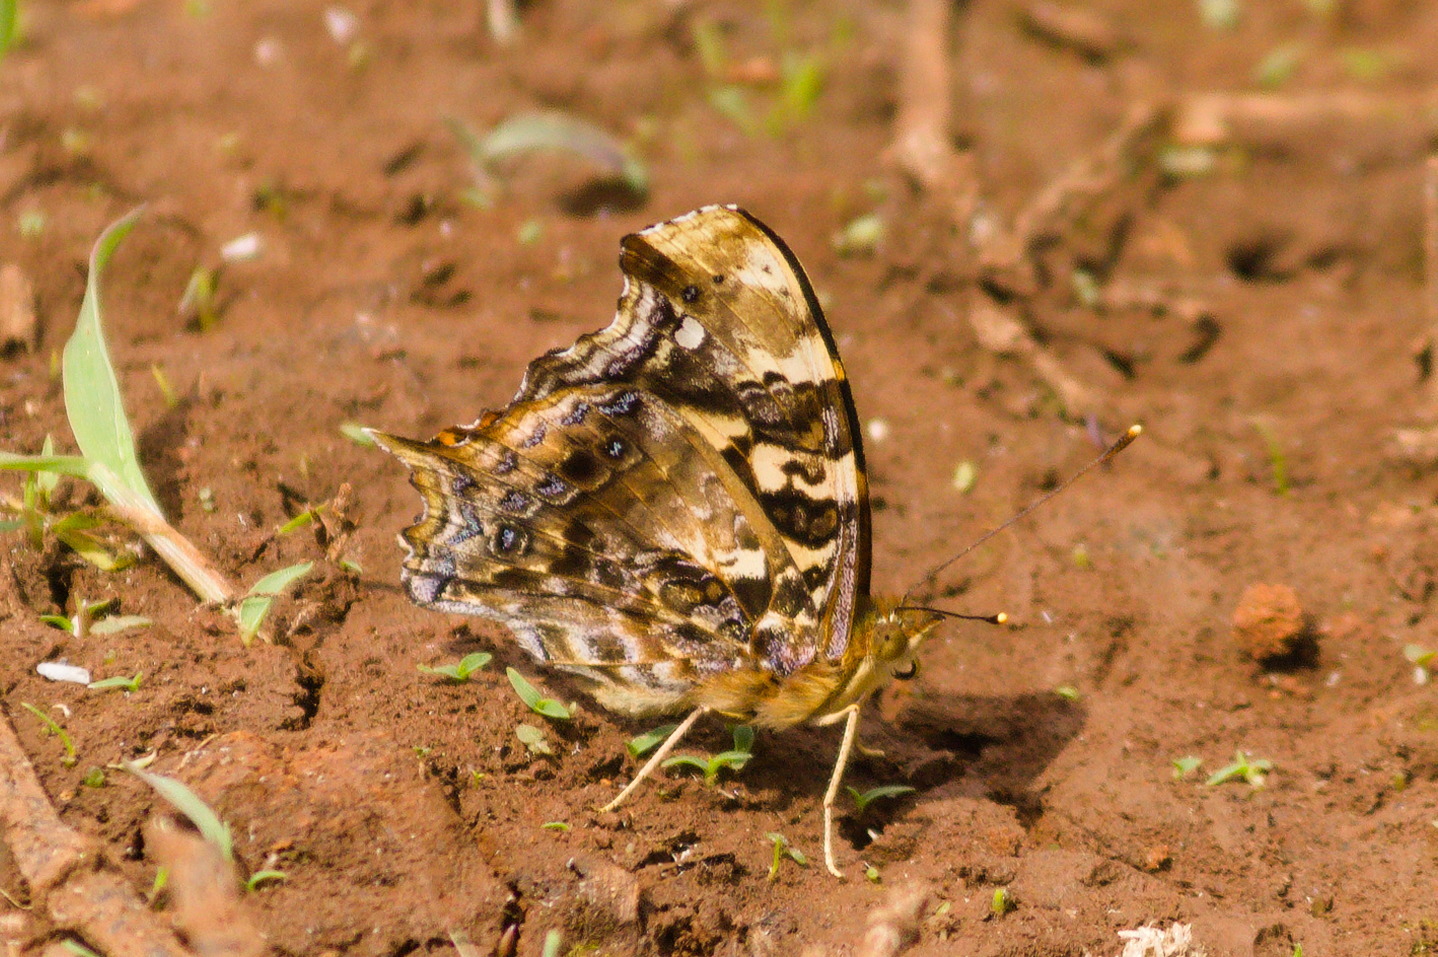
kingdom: Animalia
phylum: Arthropoda
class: Insecta
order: Lepidoptera
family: Nymphalidae
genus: Hypanartia
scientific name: Hypanartia bella
